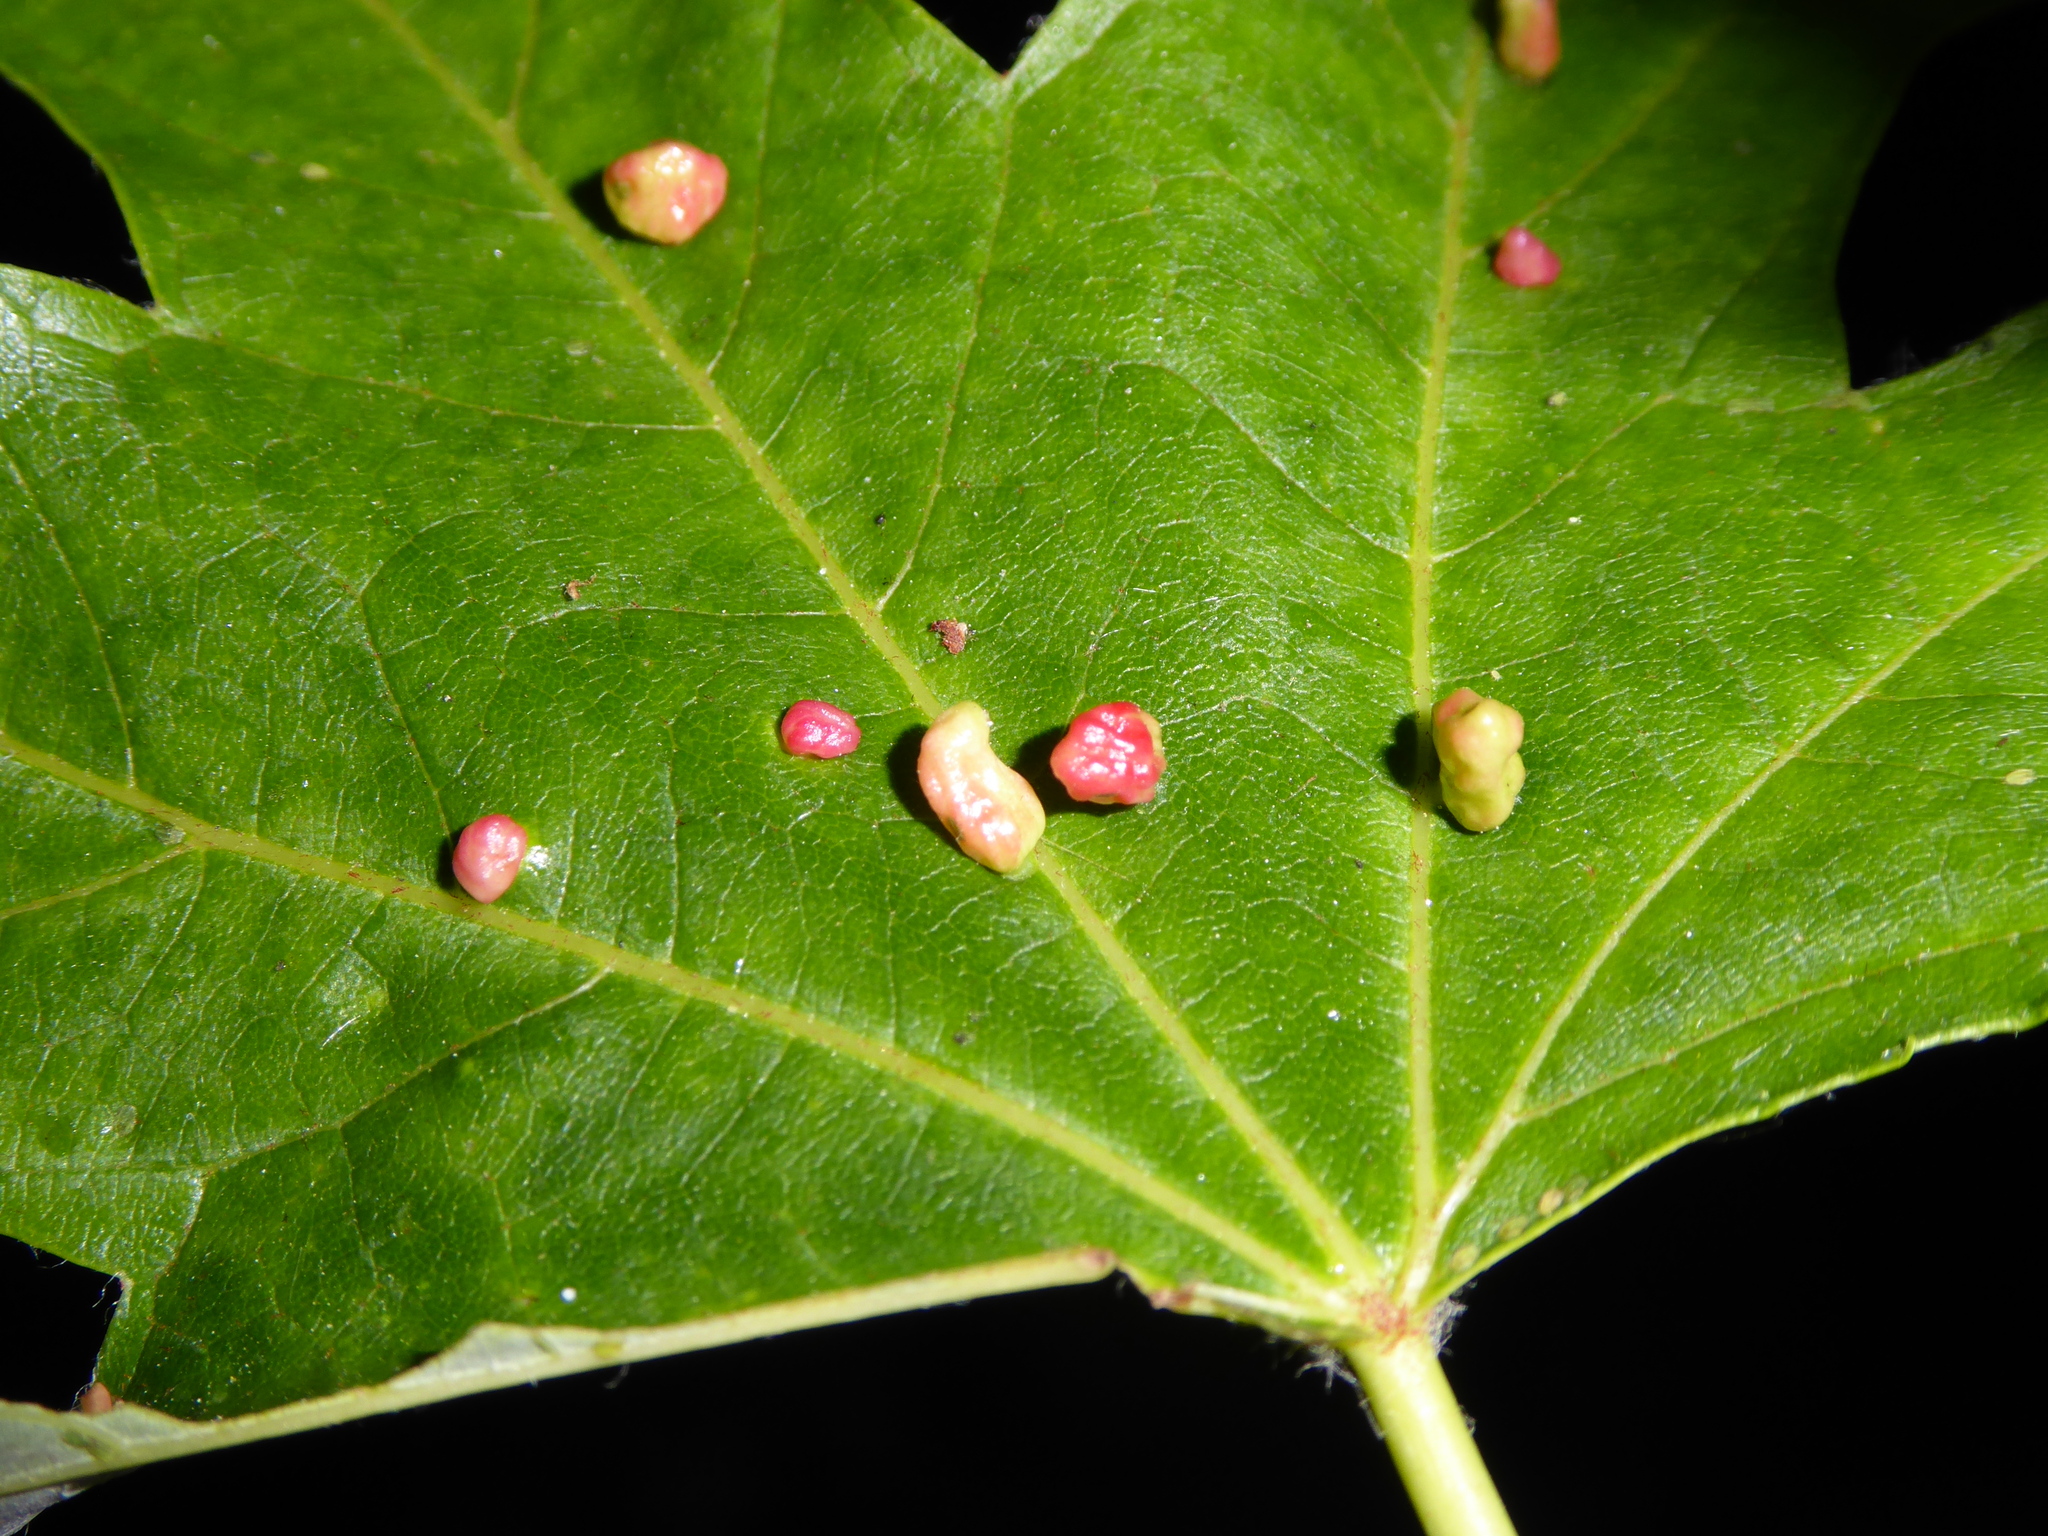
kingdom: Animalia
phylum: Arthropoda
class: Arachnida
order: Trombidiformes
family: Eriophyidae
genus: Vasates
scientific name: Vasates quadripedes
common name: Maple bladder gall mite
